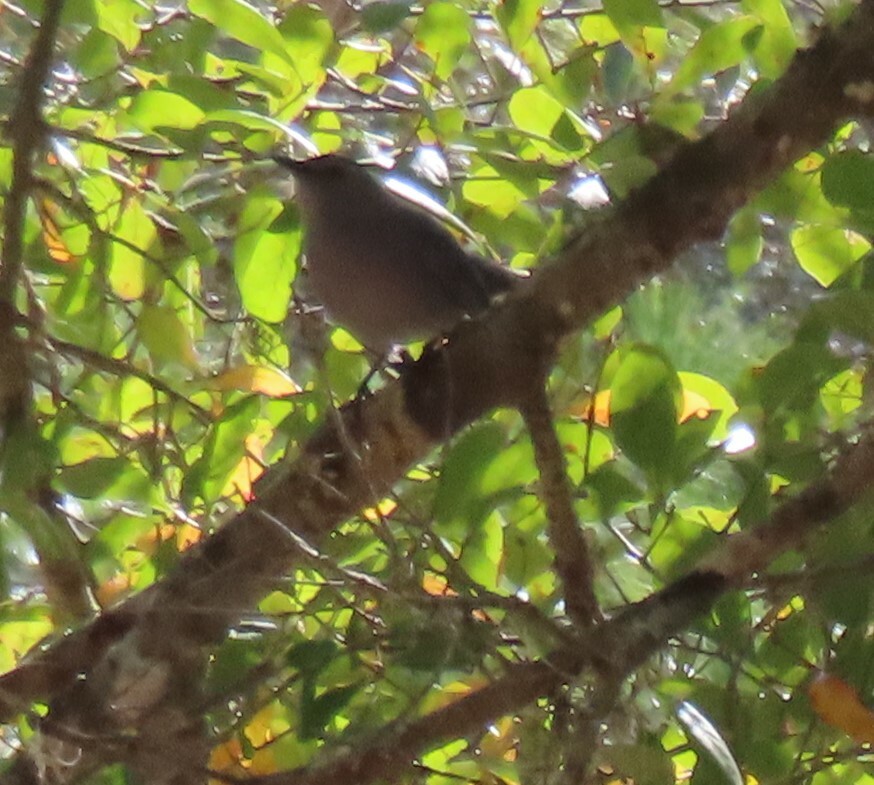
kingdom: Animalia
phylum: Chordata
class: Aves
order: Passeriformes
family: Mimidae
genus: Dumetella
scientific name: Dumetella carolinensis
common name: Gray catbird
